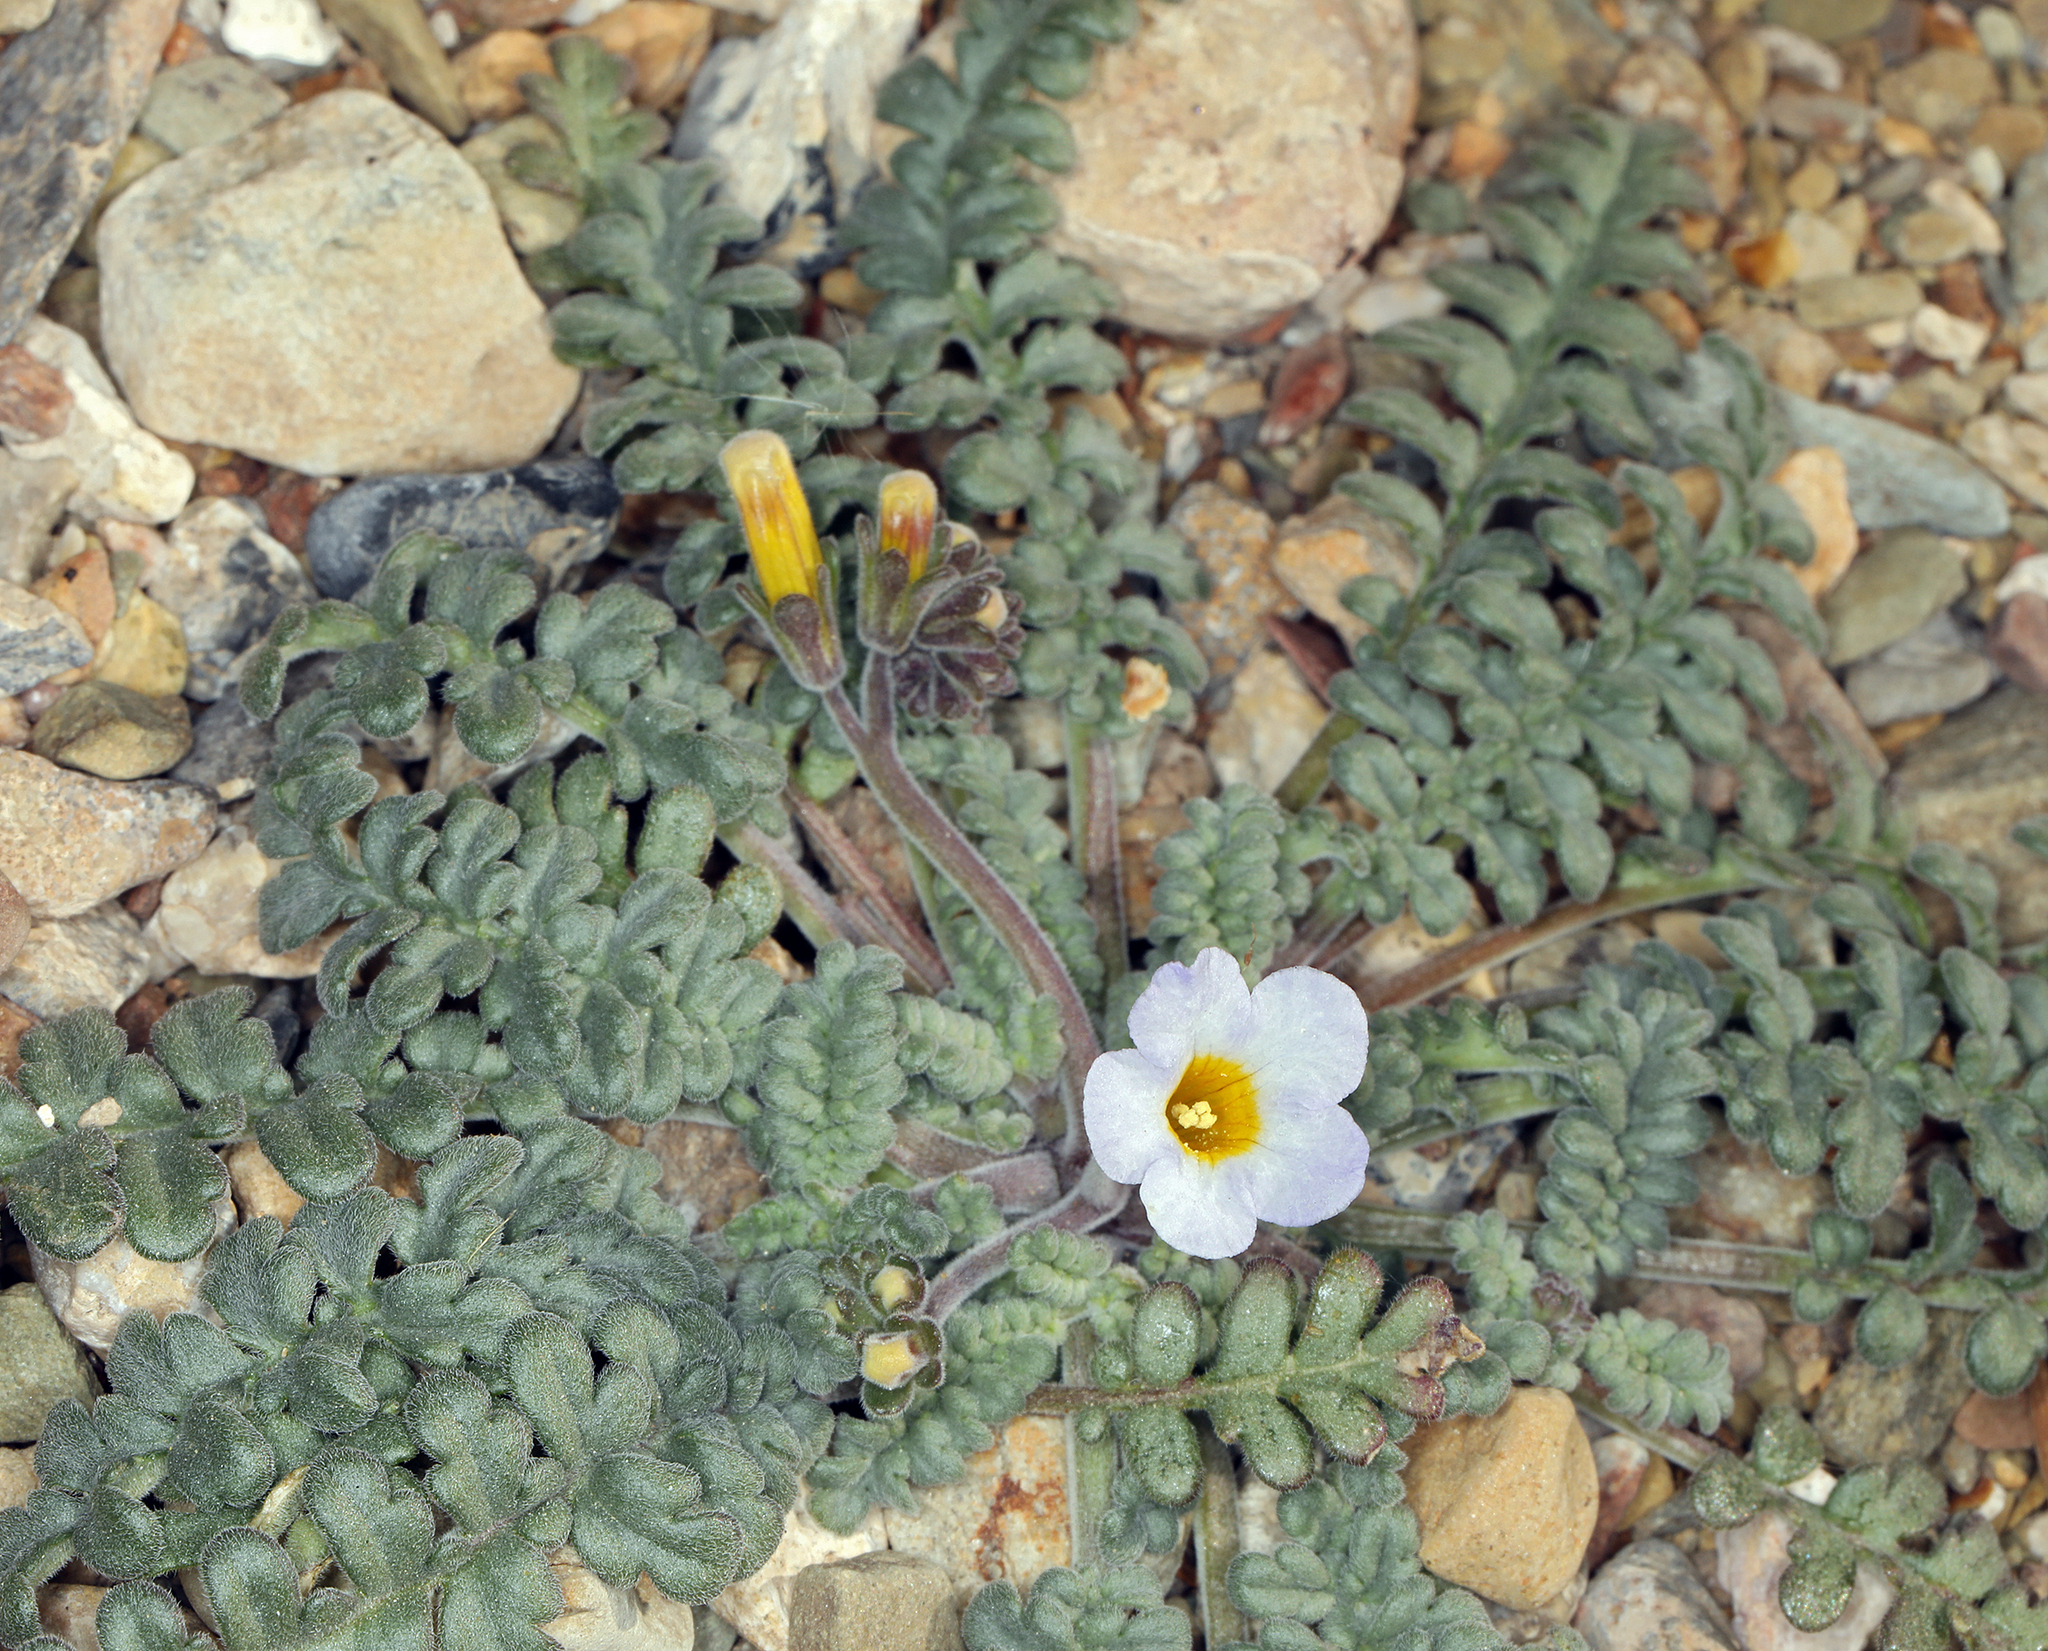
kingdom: Plantae
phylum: Tracheophyta
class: Magnoliopsida
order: Boraginales
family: Hydrophyllaceae
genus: Phacelia
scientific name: Phacelia fremontii
